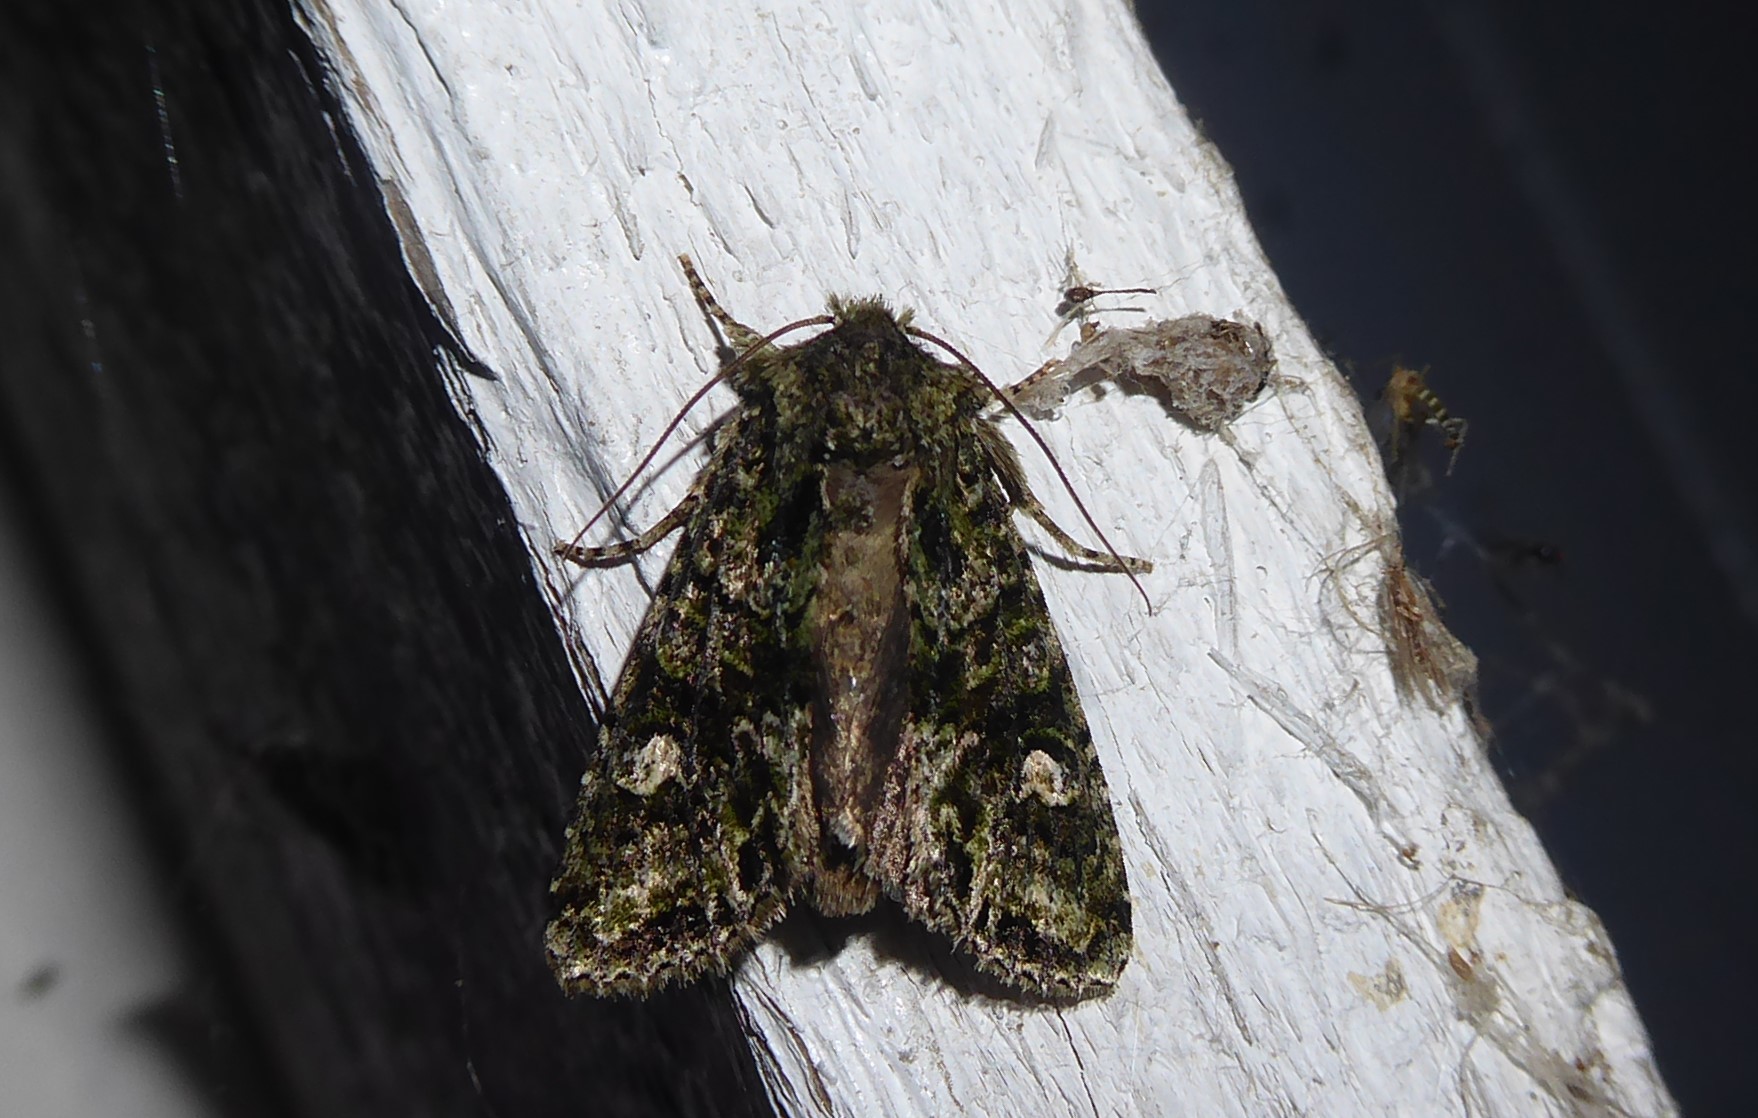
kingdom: Animalia
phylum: Arthropoda
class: Insecta
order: Lepidoptera
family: Noctuidae
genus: Ichneutica
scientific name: Ichneutica
